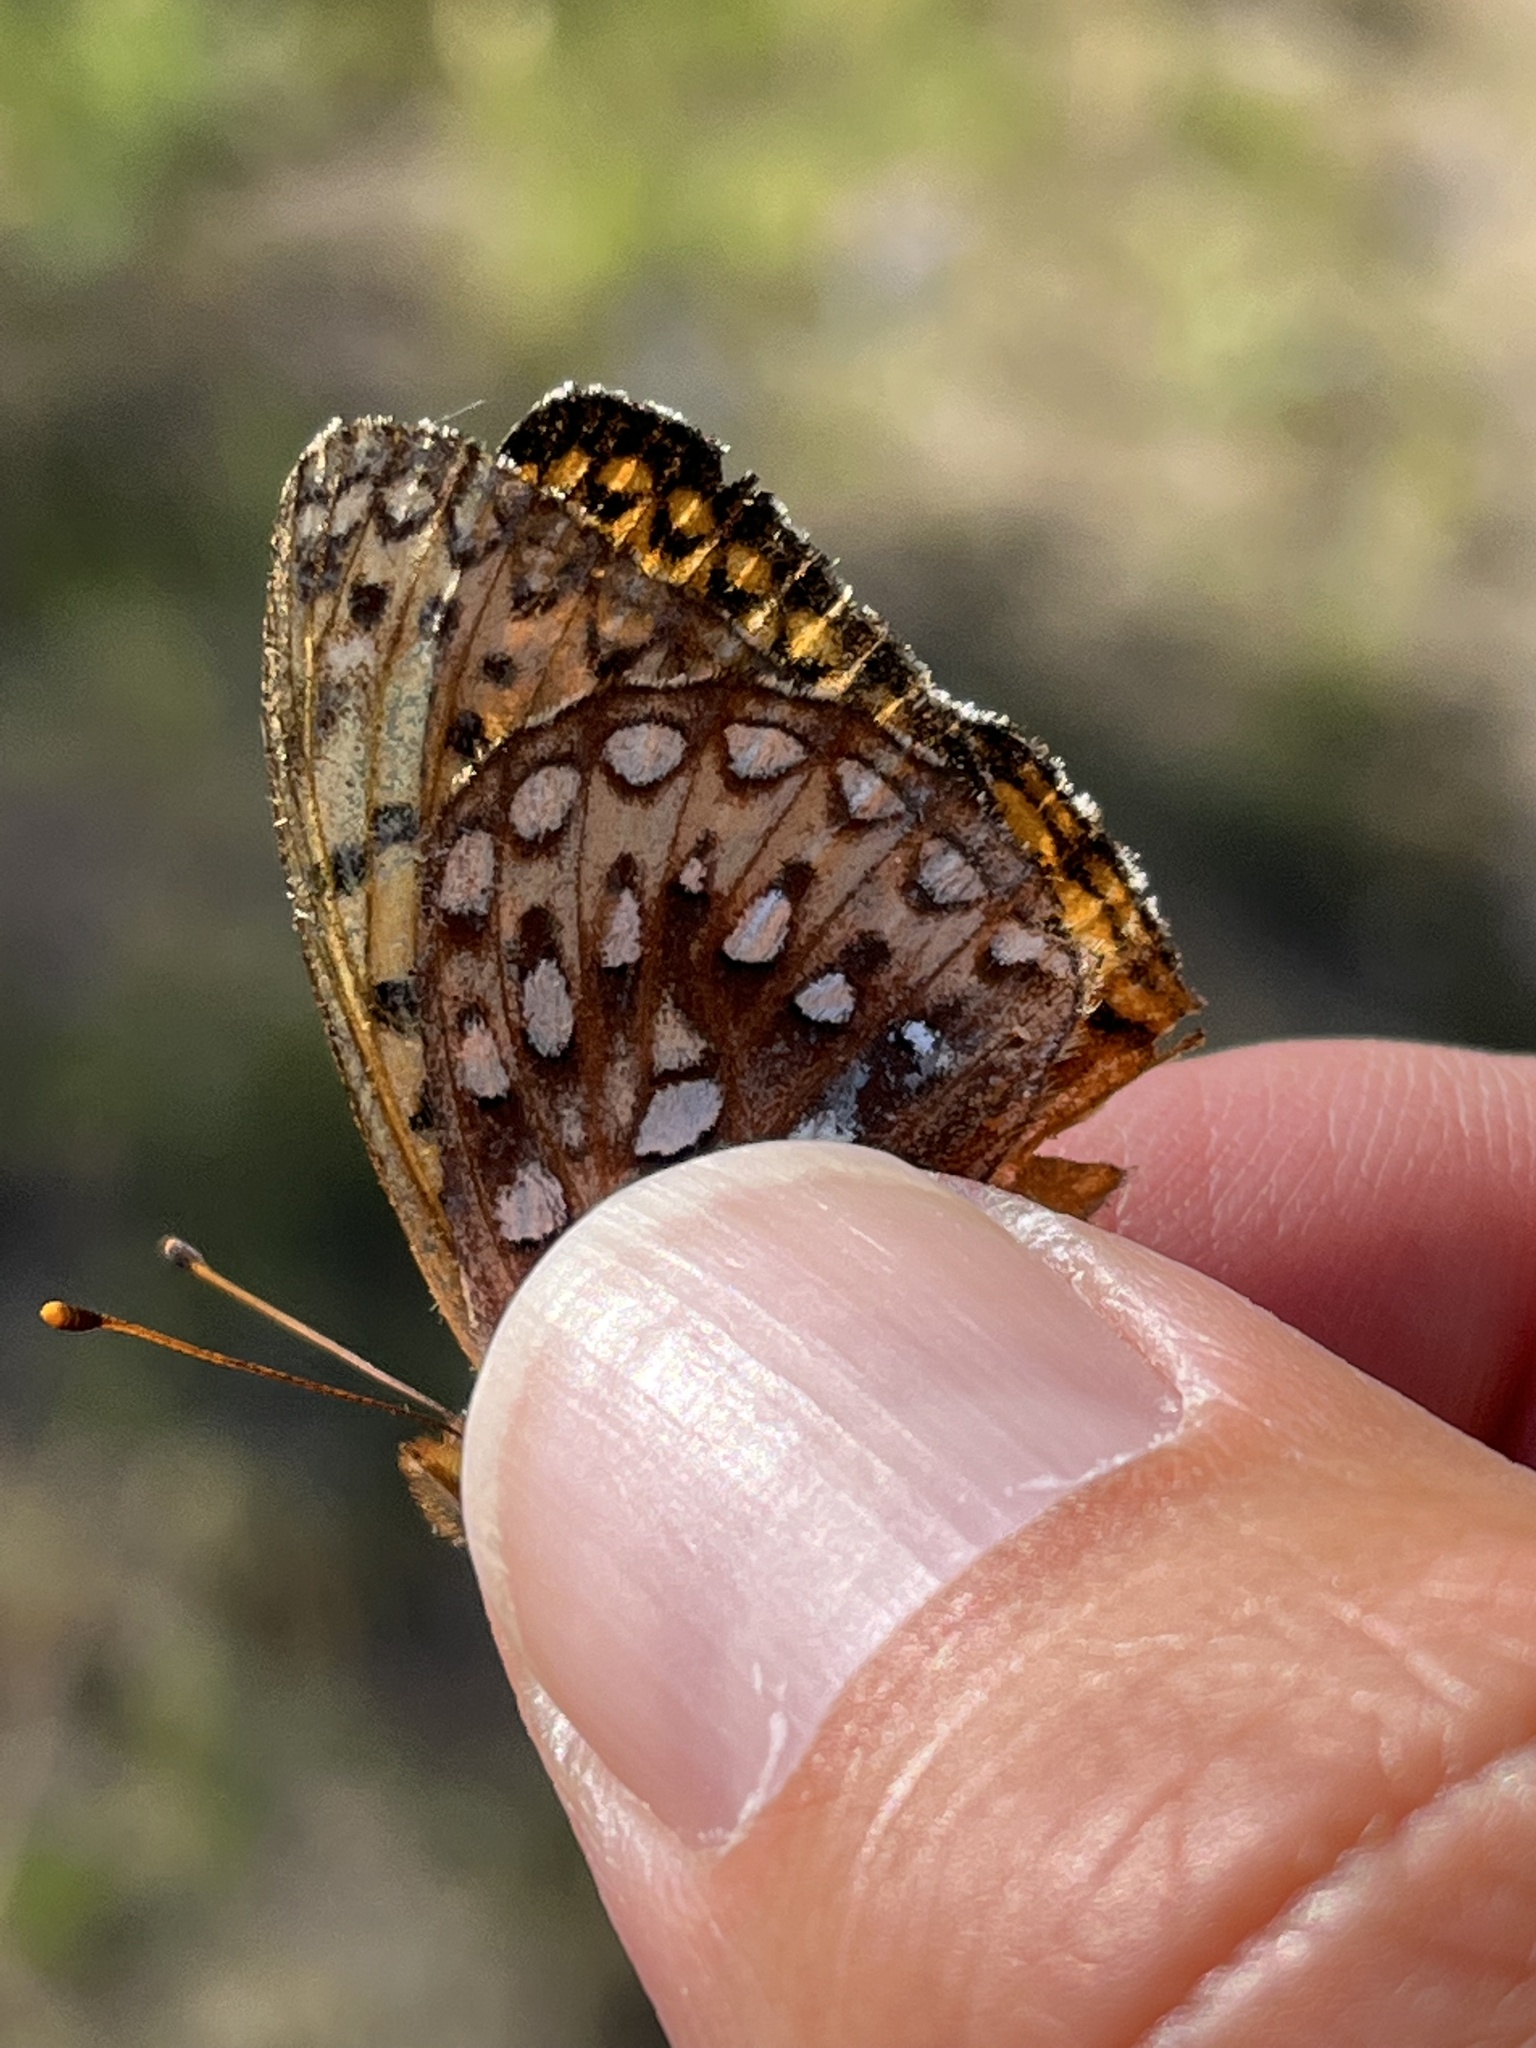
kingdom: Animalia
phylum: Arthropoda
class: Insecta
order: Lepidoptera
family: Nymphalidae
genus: Speyeria
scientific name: Speyeria atlantis
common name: Atlantis fritillary
